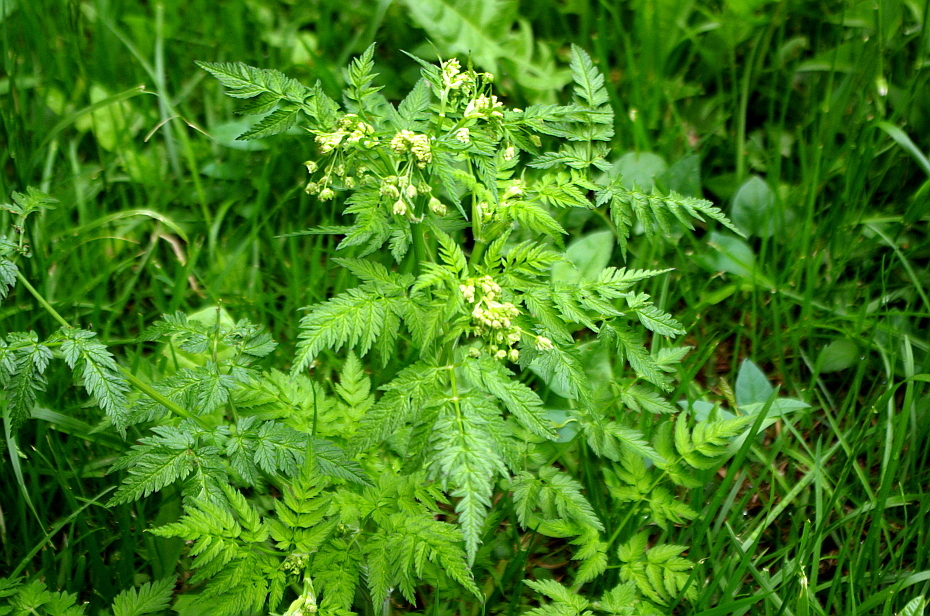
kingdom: Plantae
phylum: Tracheophyta
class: Magnoliopsida
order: Apiales
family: Apiaceae
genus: Anthriscus
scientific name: Anthriscus sylvestris
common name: Cow parsley
